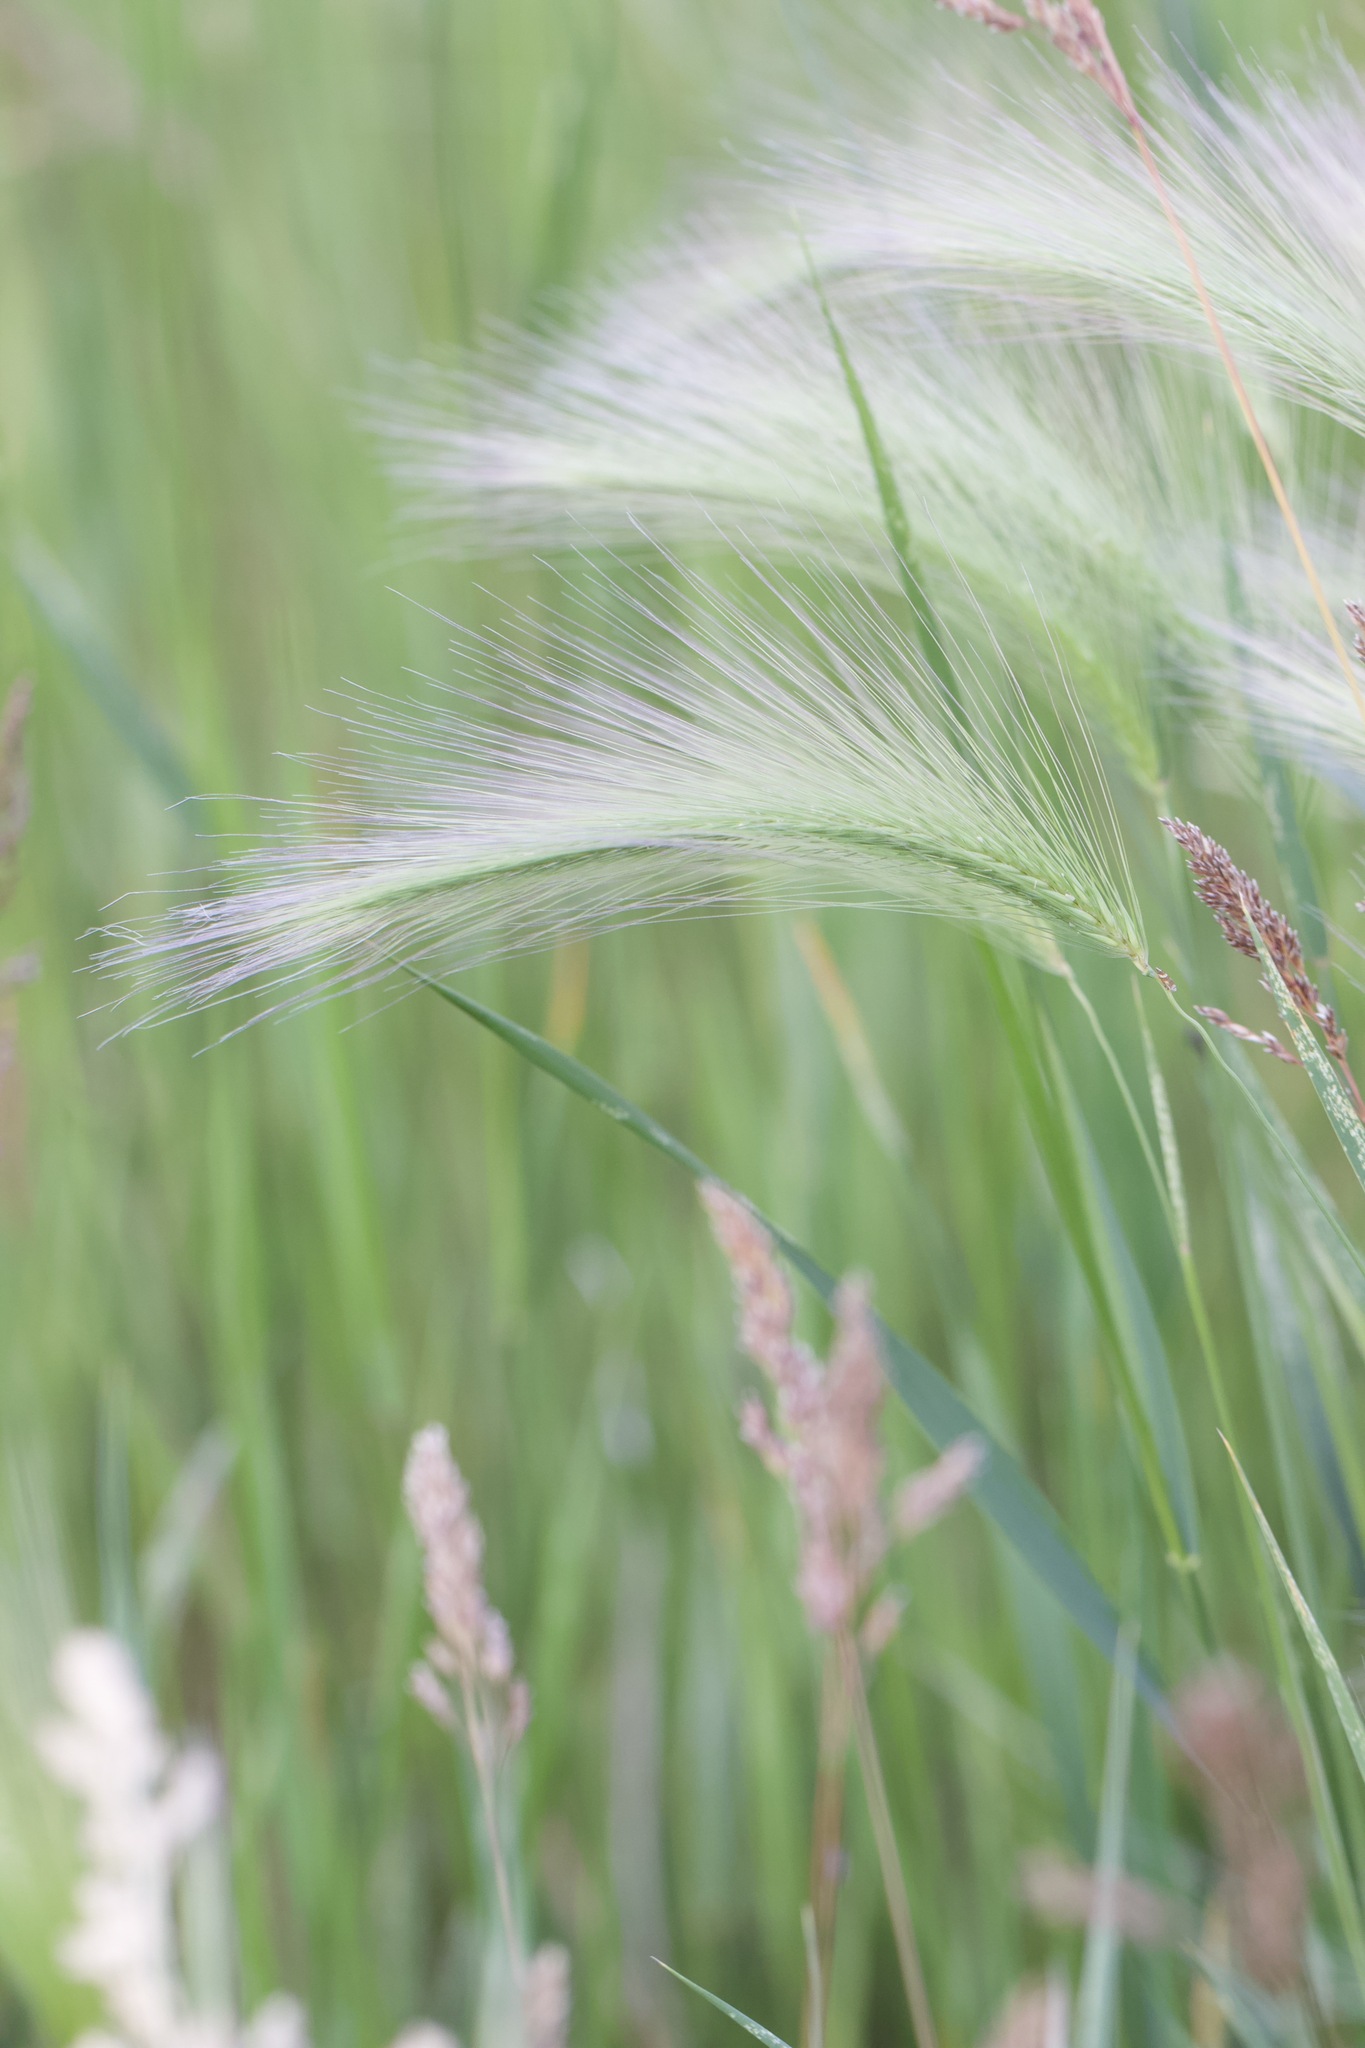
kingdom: Plantae
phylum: Tracheophyta
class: Liliopsida
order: Poales
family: Poaceae
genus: Hordeum
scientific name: Hordeum jubatum
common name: Foxtail barley
